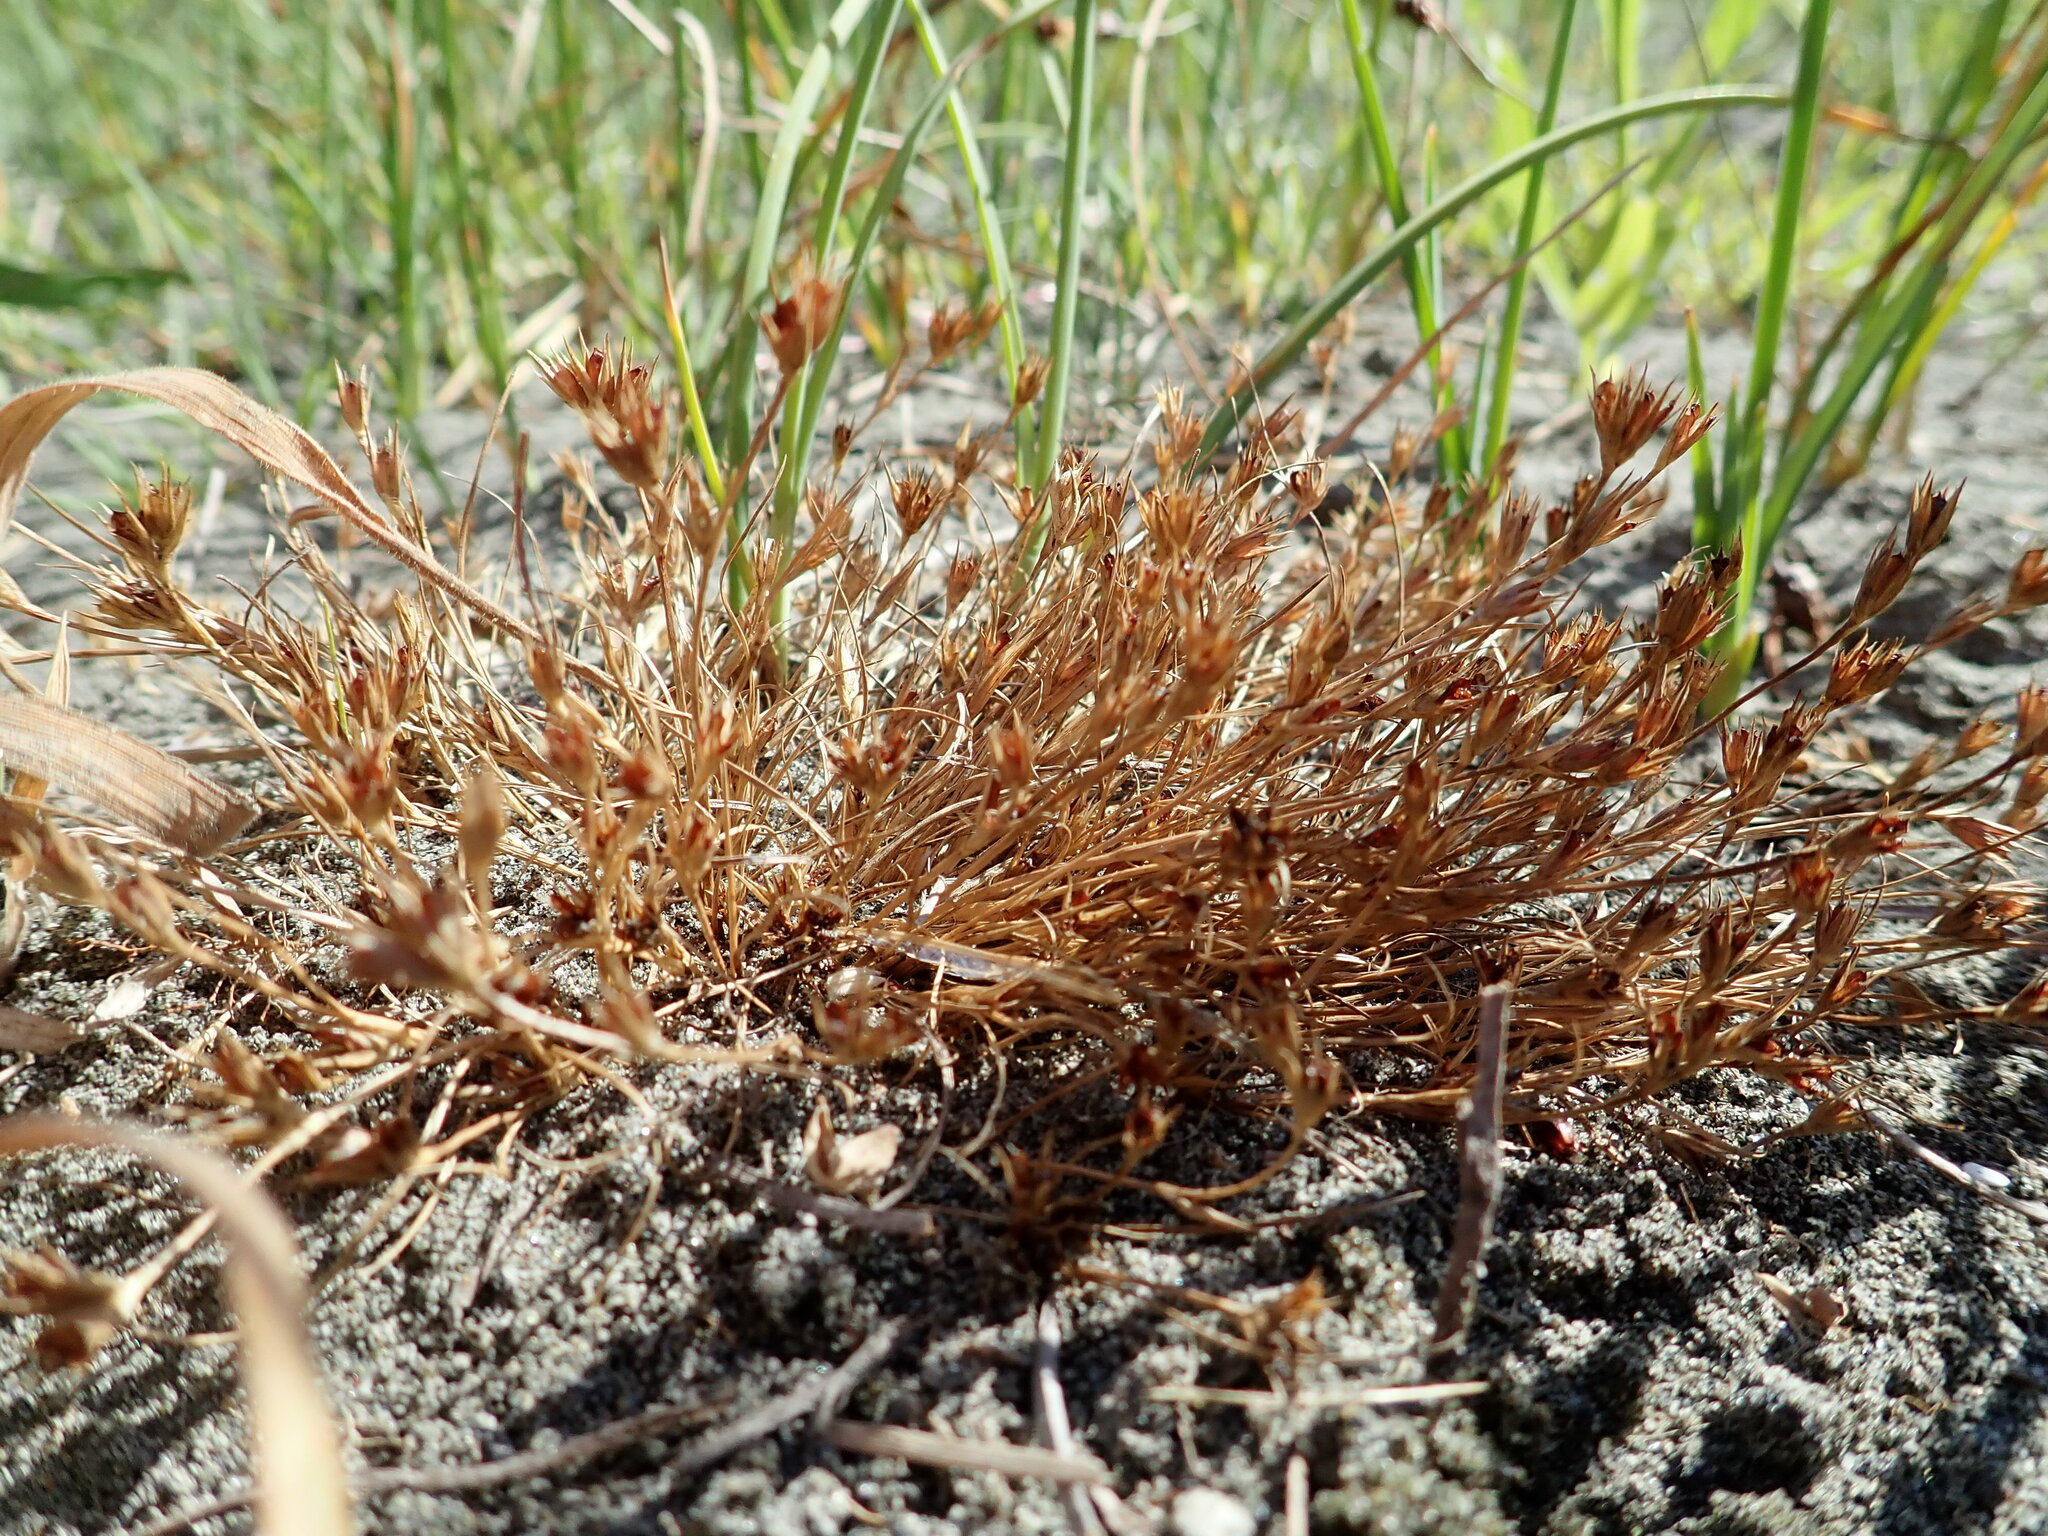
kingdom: Plantae
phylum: Tracheophyta
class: Liliopsida
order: Poales
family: Juncaceae
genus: Juncus
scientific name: Juncus bufonius
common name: Toad rush
